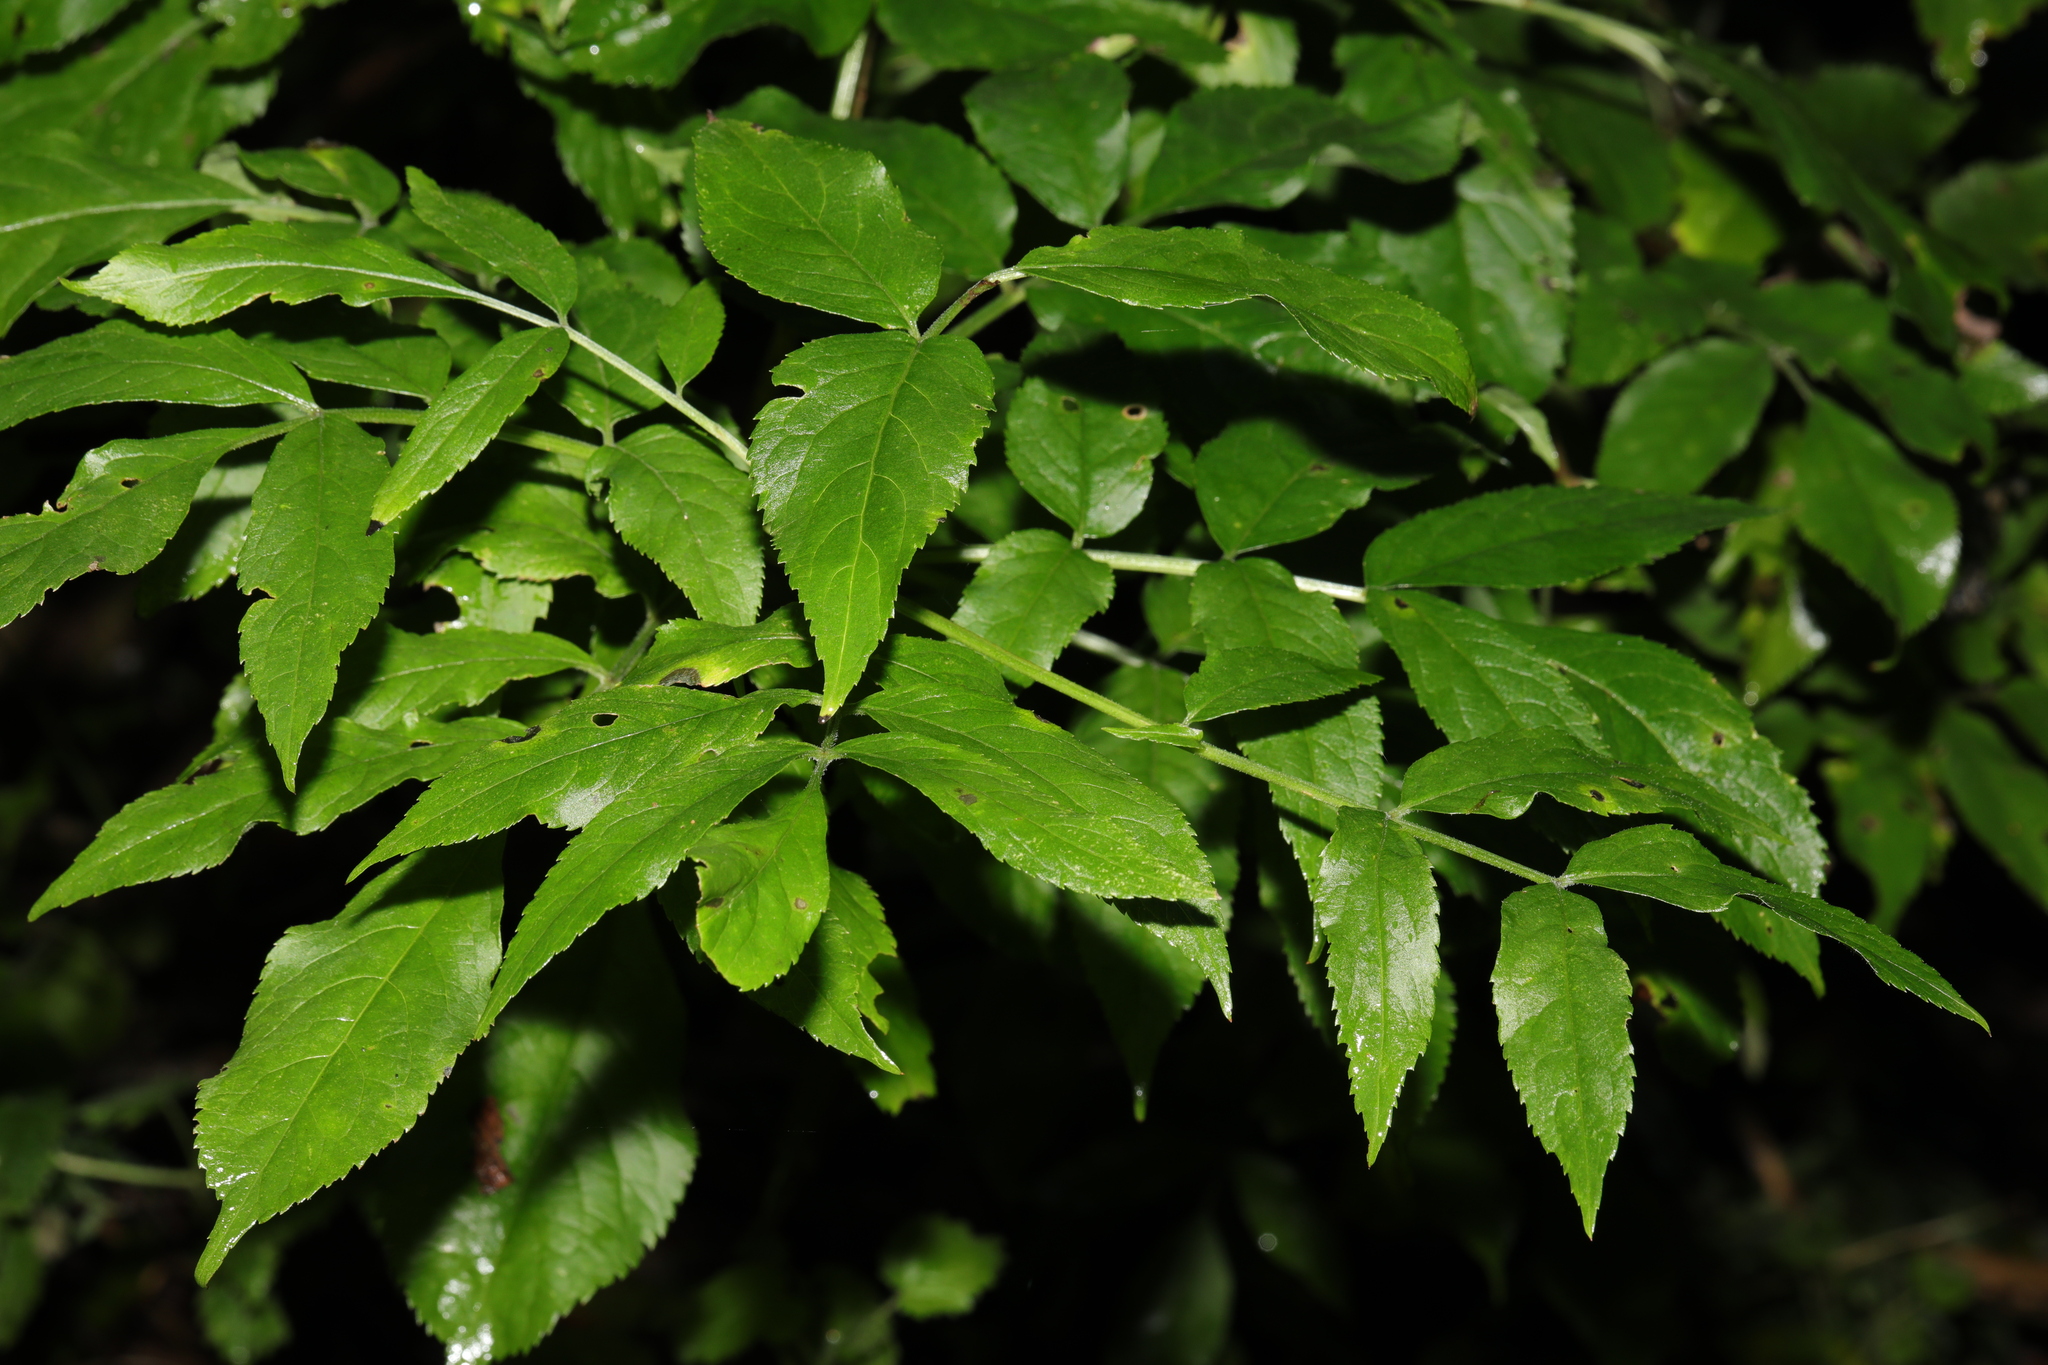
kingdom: Plantae
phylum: Tracheophyta
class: Magnoliopsida
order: Dipsacales
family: Viburnaceae
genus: Sambucus
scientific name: Sambucus nigra
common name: Elder
